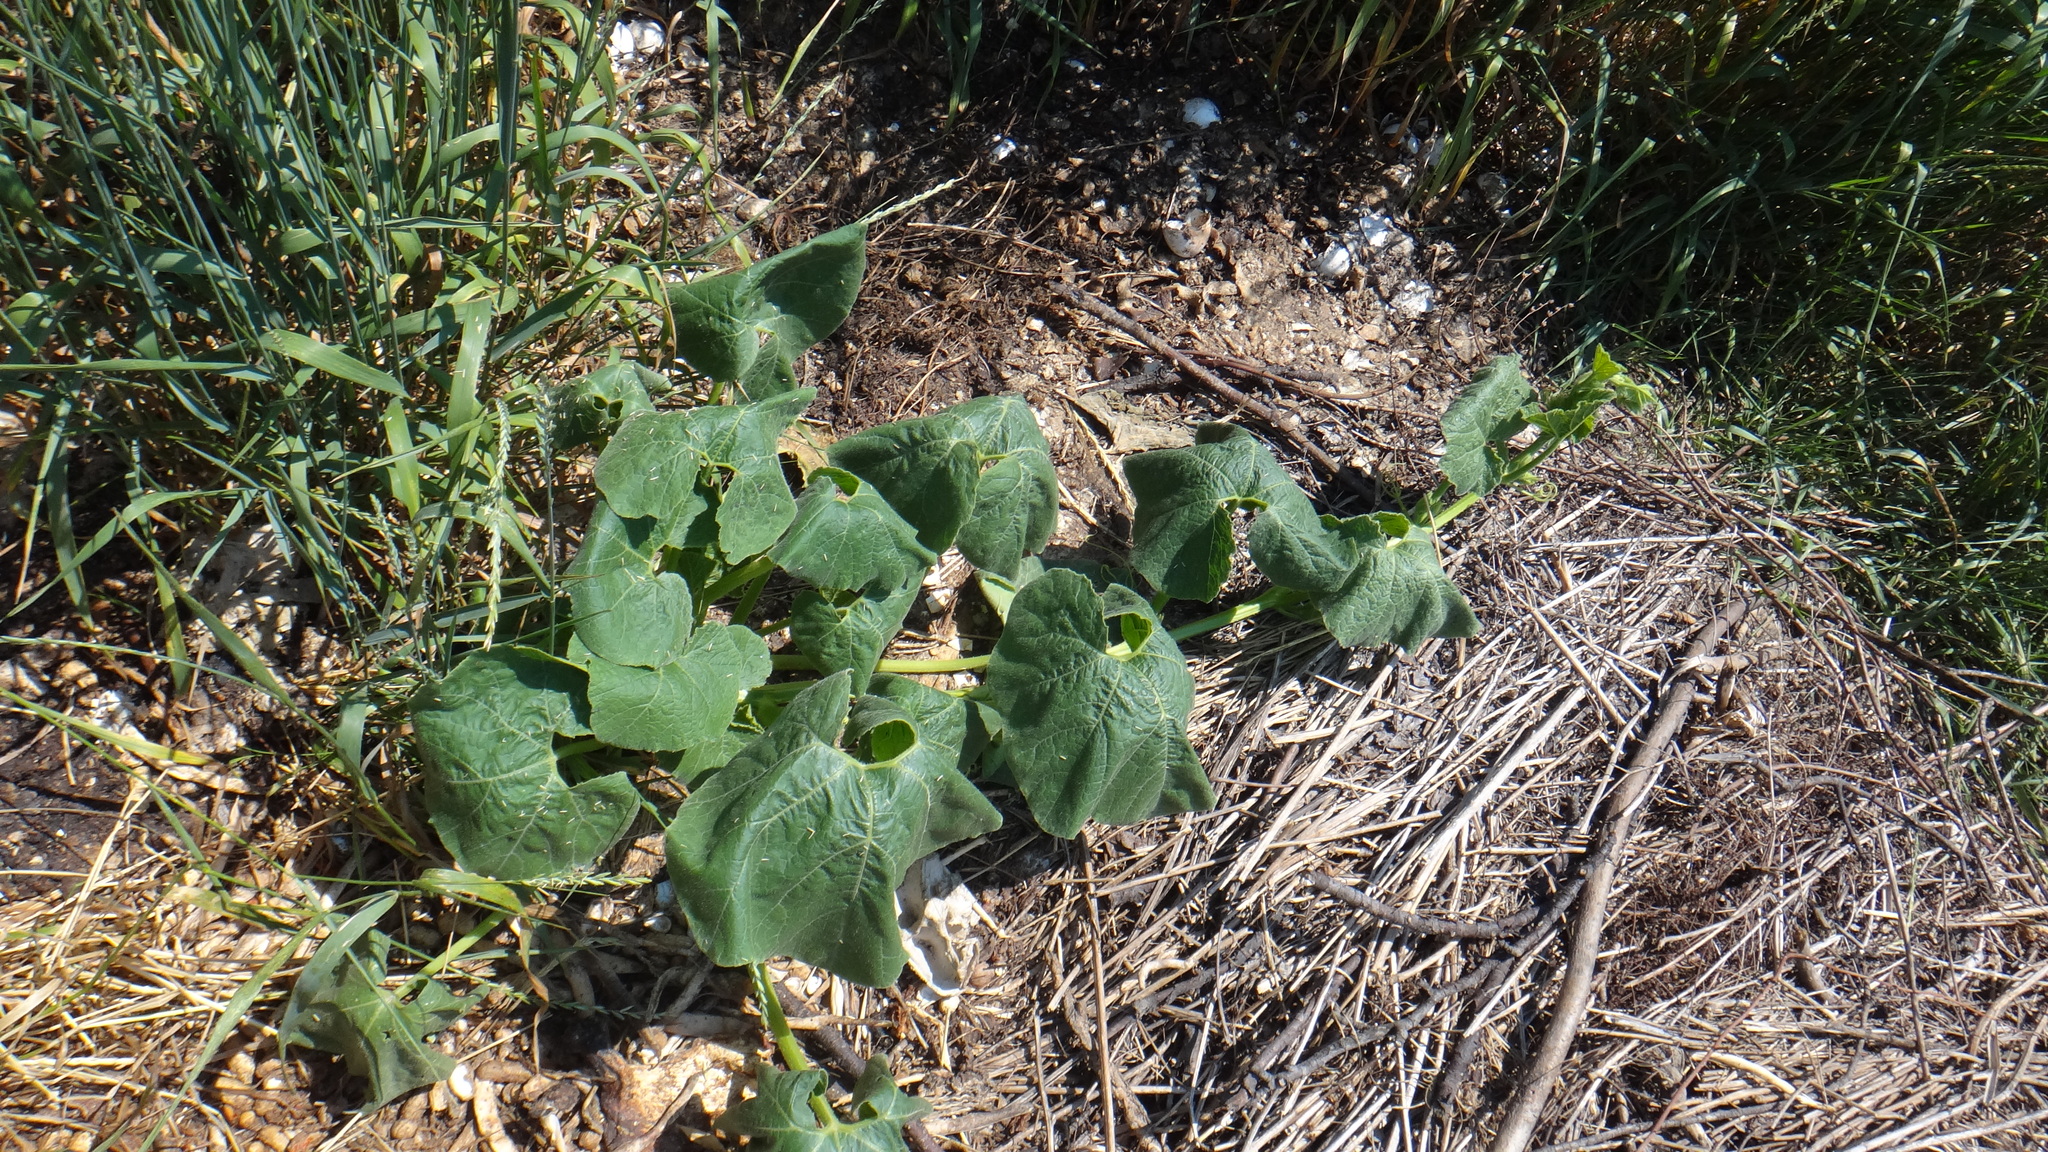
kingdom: Plantae
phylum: Tracheophyta
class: Magnoliopsida
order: Cucurbitales
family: Cucurbitaceae
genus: Cucurbita
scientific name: Cucurbita pepo
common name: Marrow
